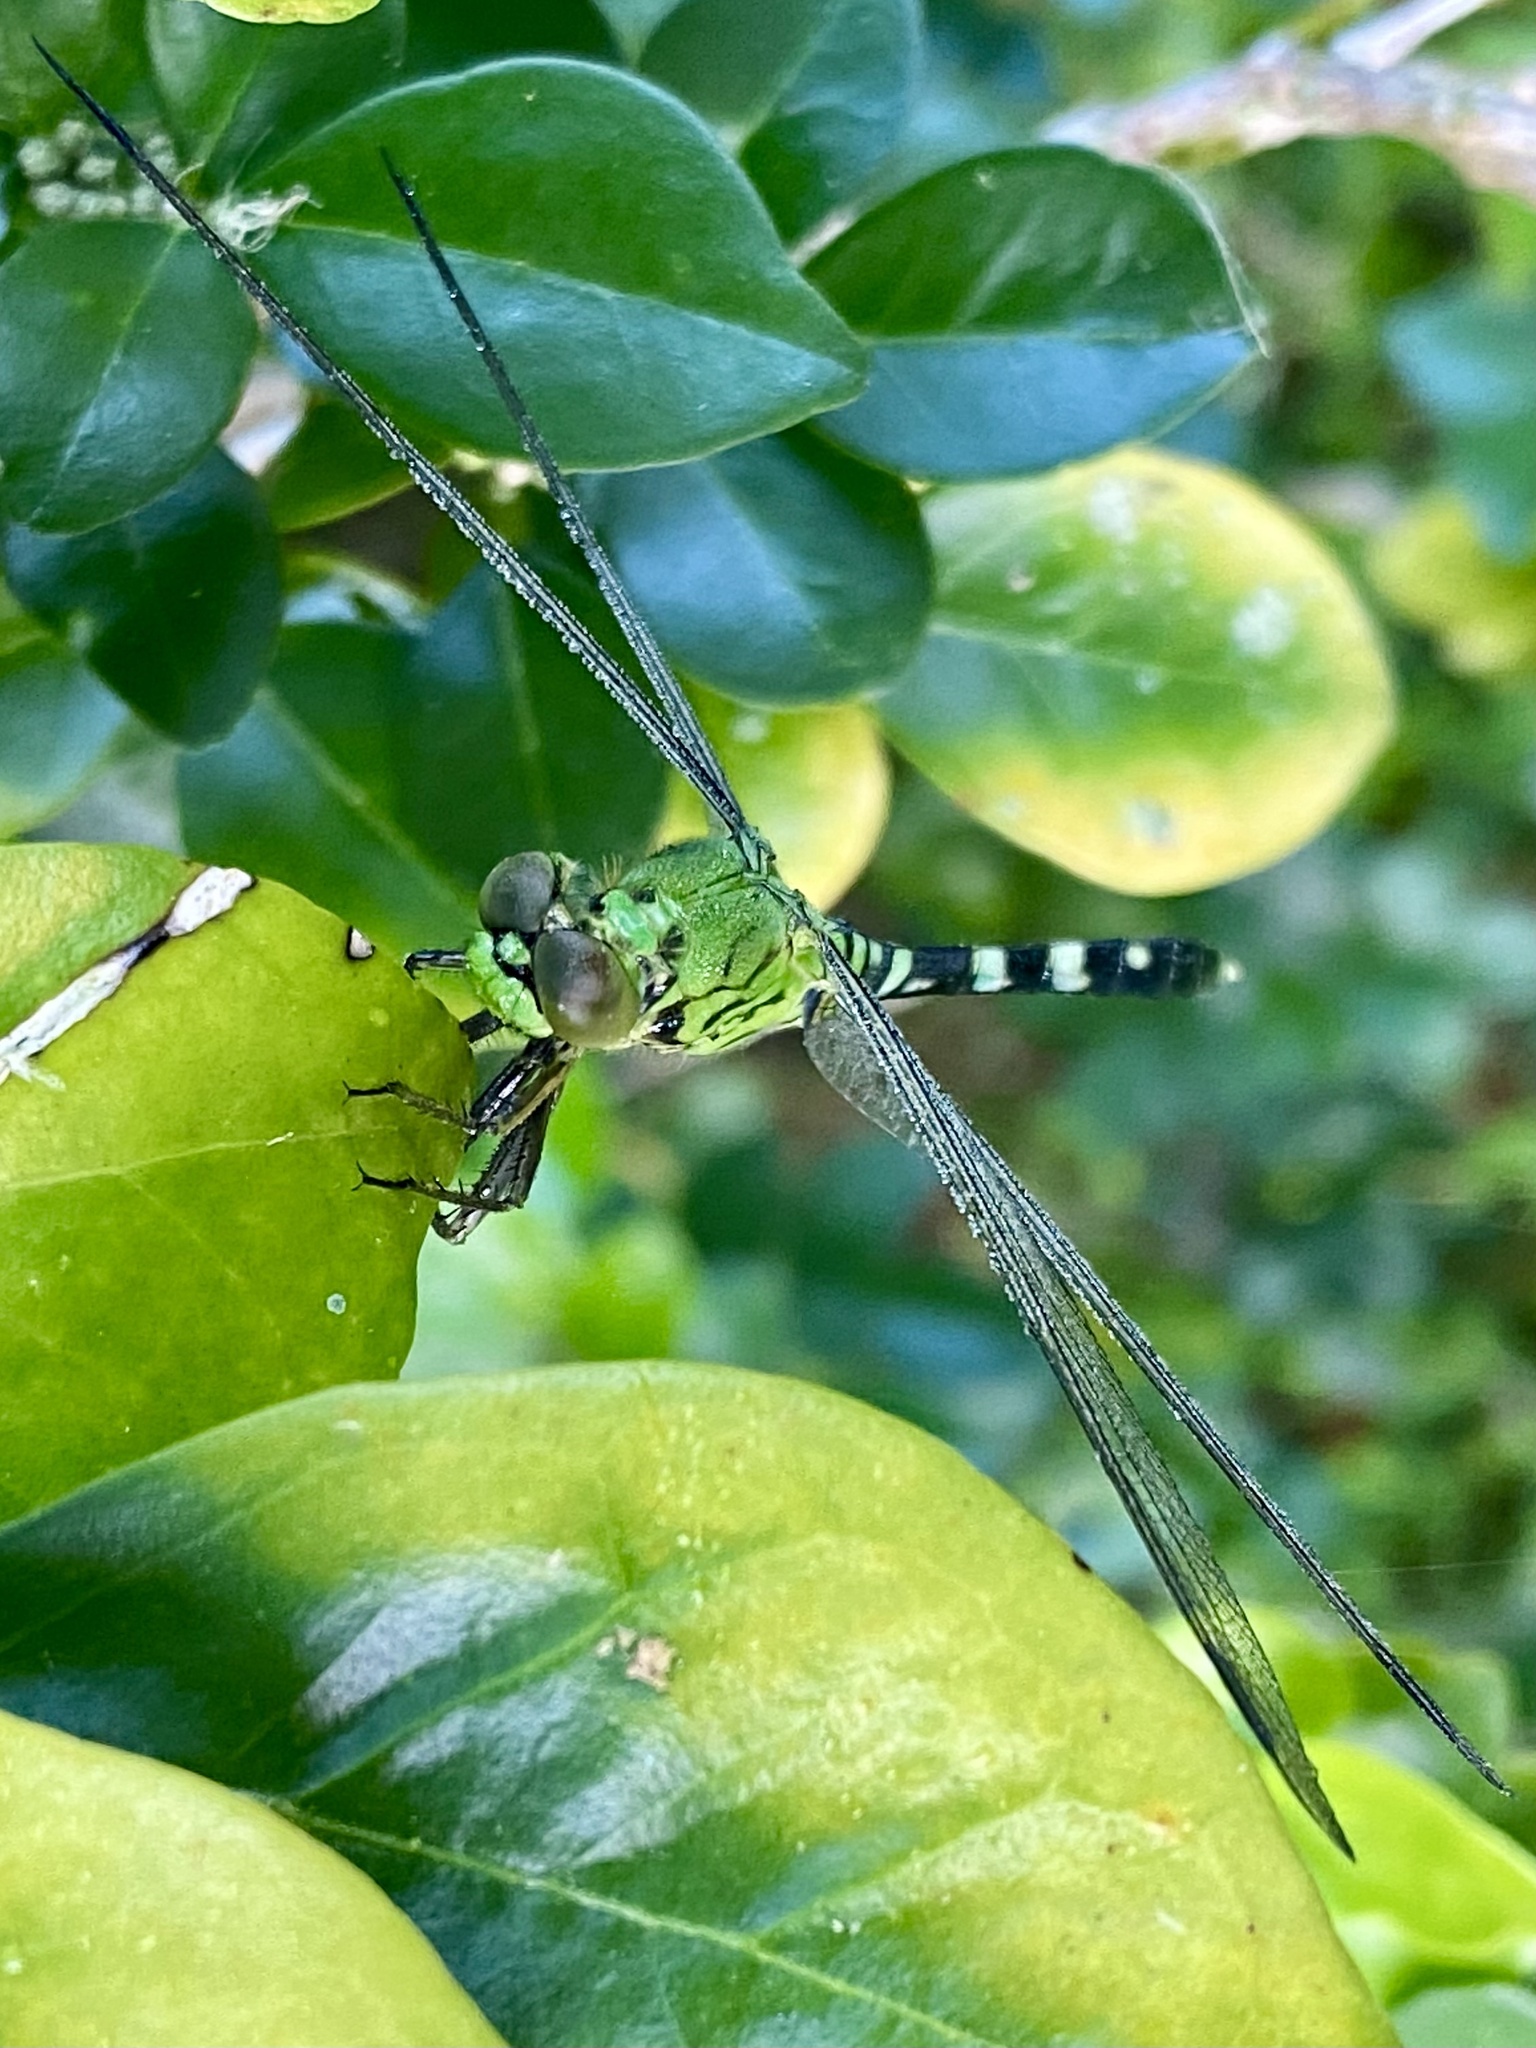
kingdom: Animalia
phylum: Arthropoda
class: Insecta
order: Odonata
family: Libellulidae
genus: Erythemis
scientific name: Erythemis simplicicollis
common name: Eastern pondhawk
